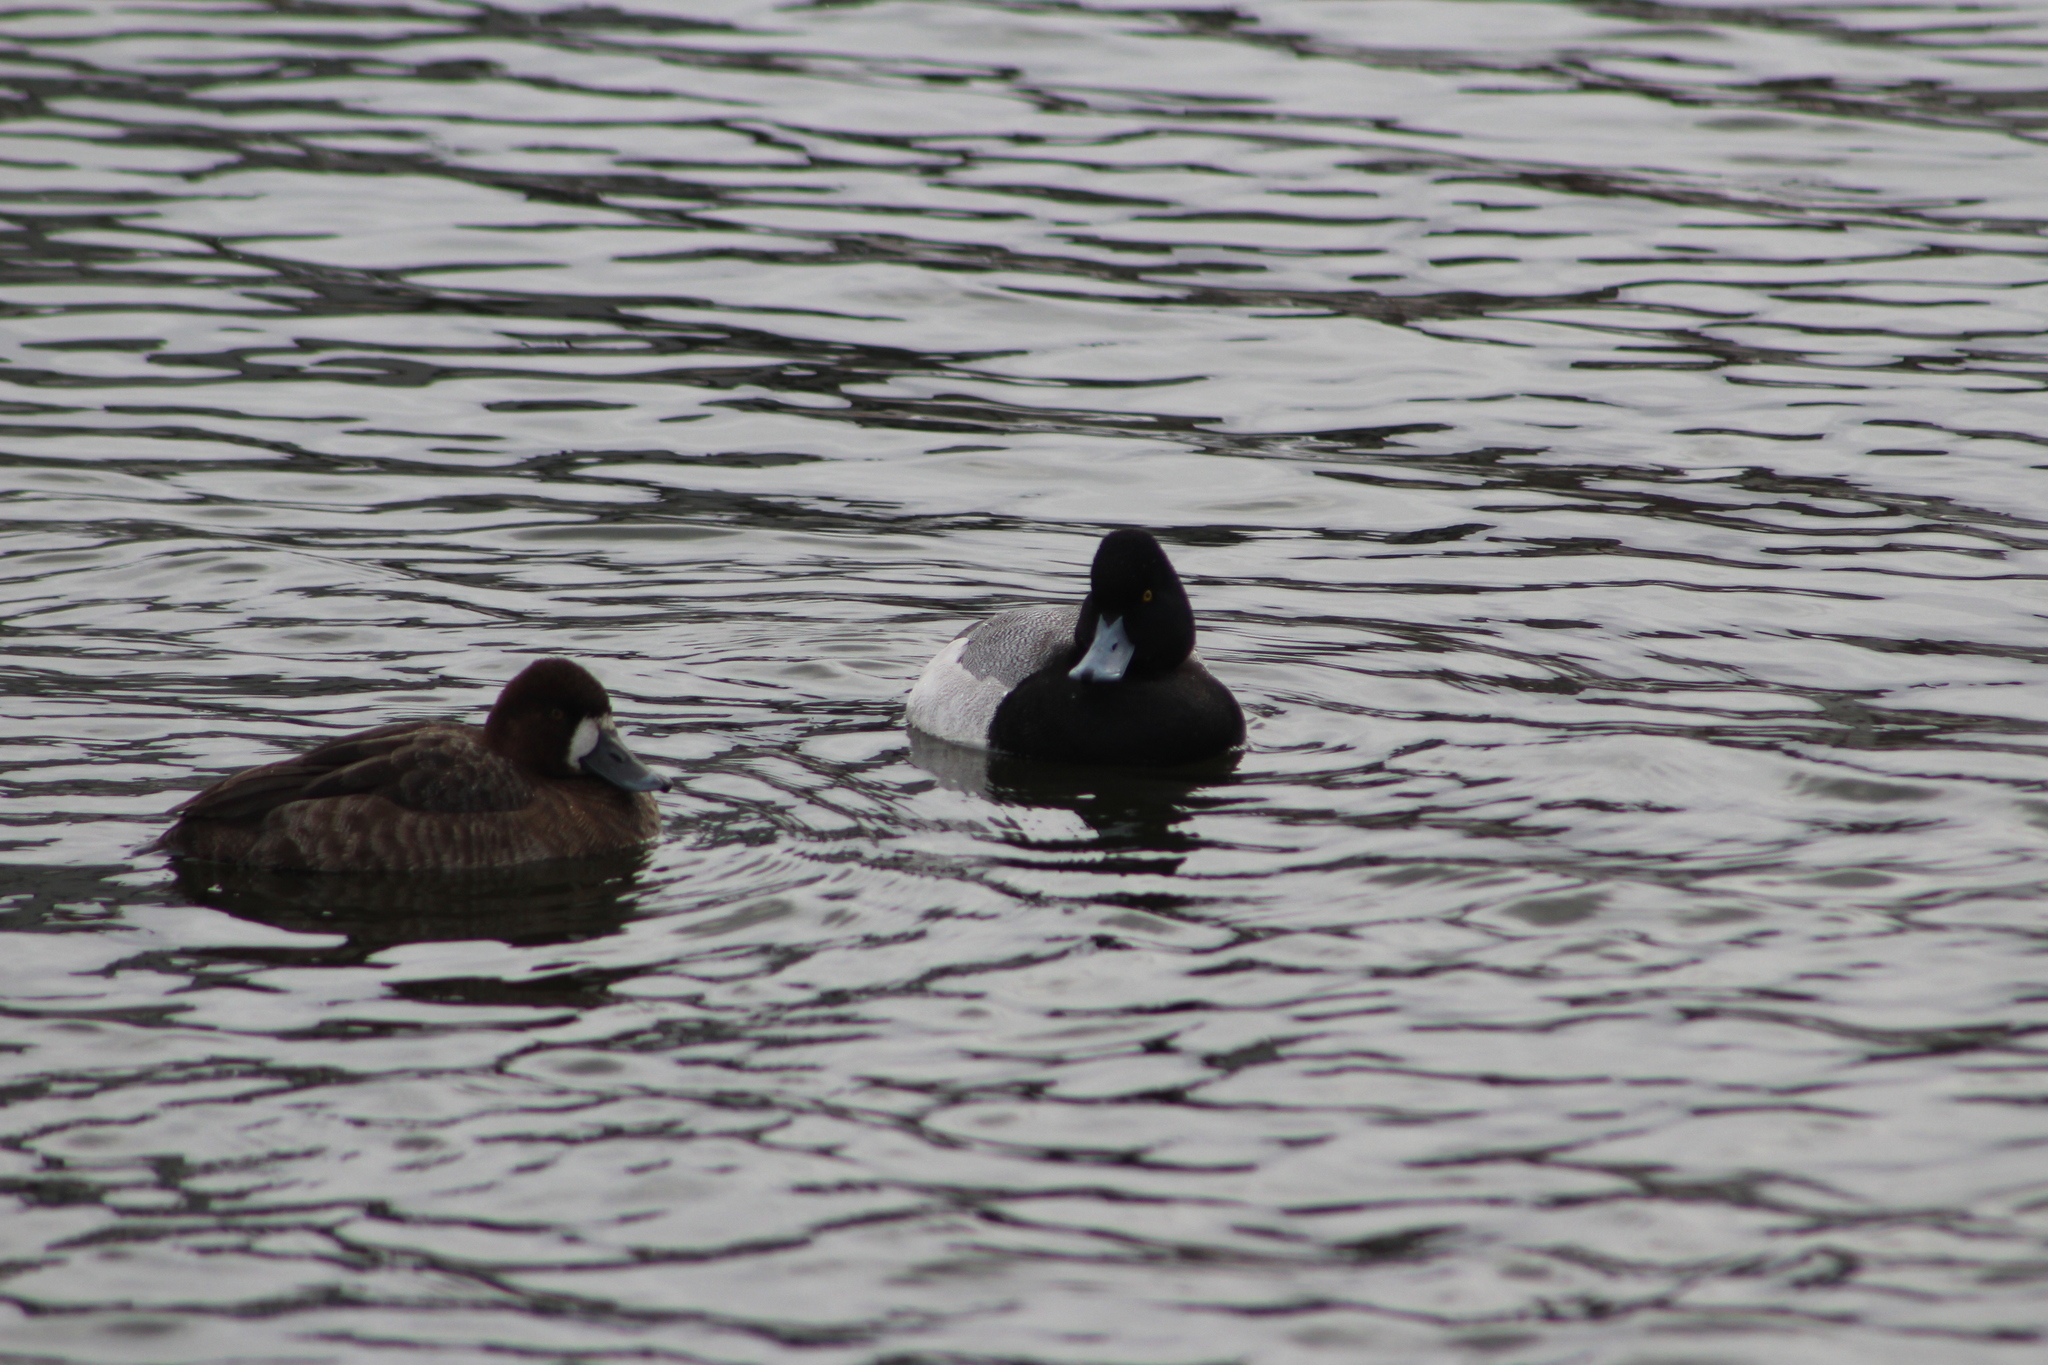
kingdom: Animalia
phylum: Chordata
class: Aves
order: Anseriformes
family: Anatidae
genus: Aythya
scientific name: Aythya affinis
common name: Lesser scaup
